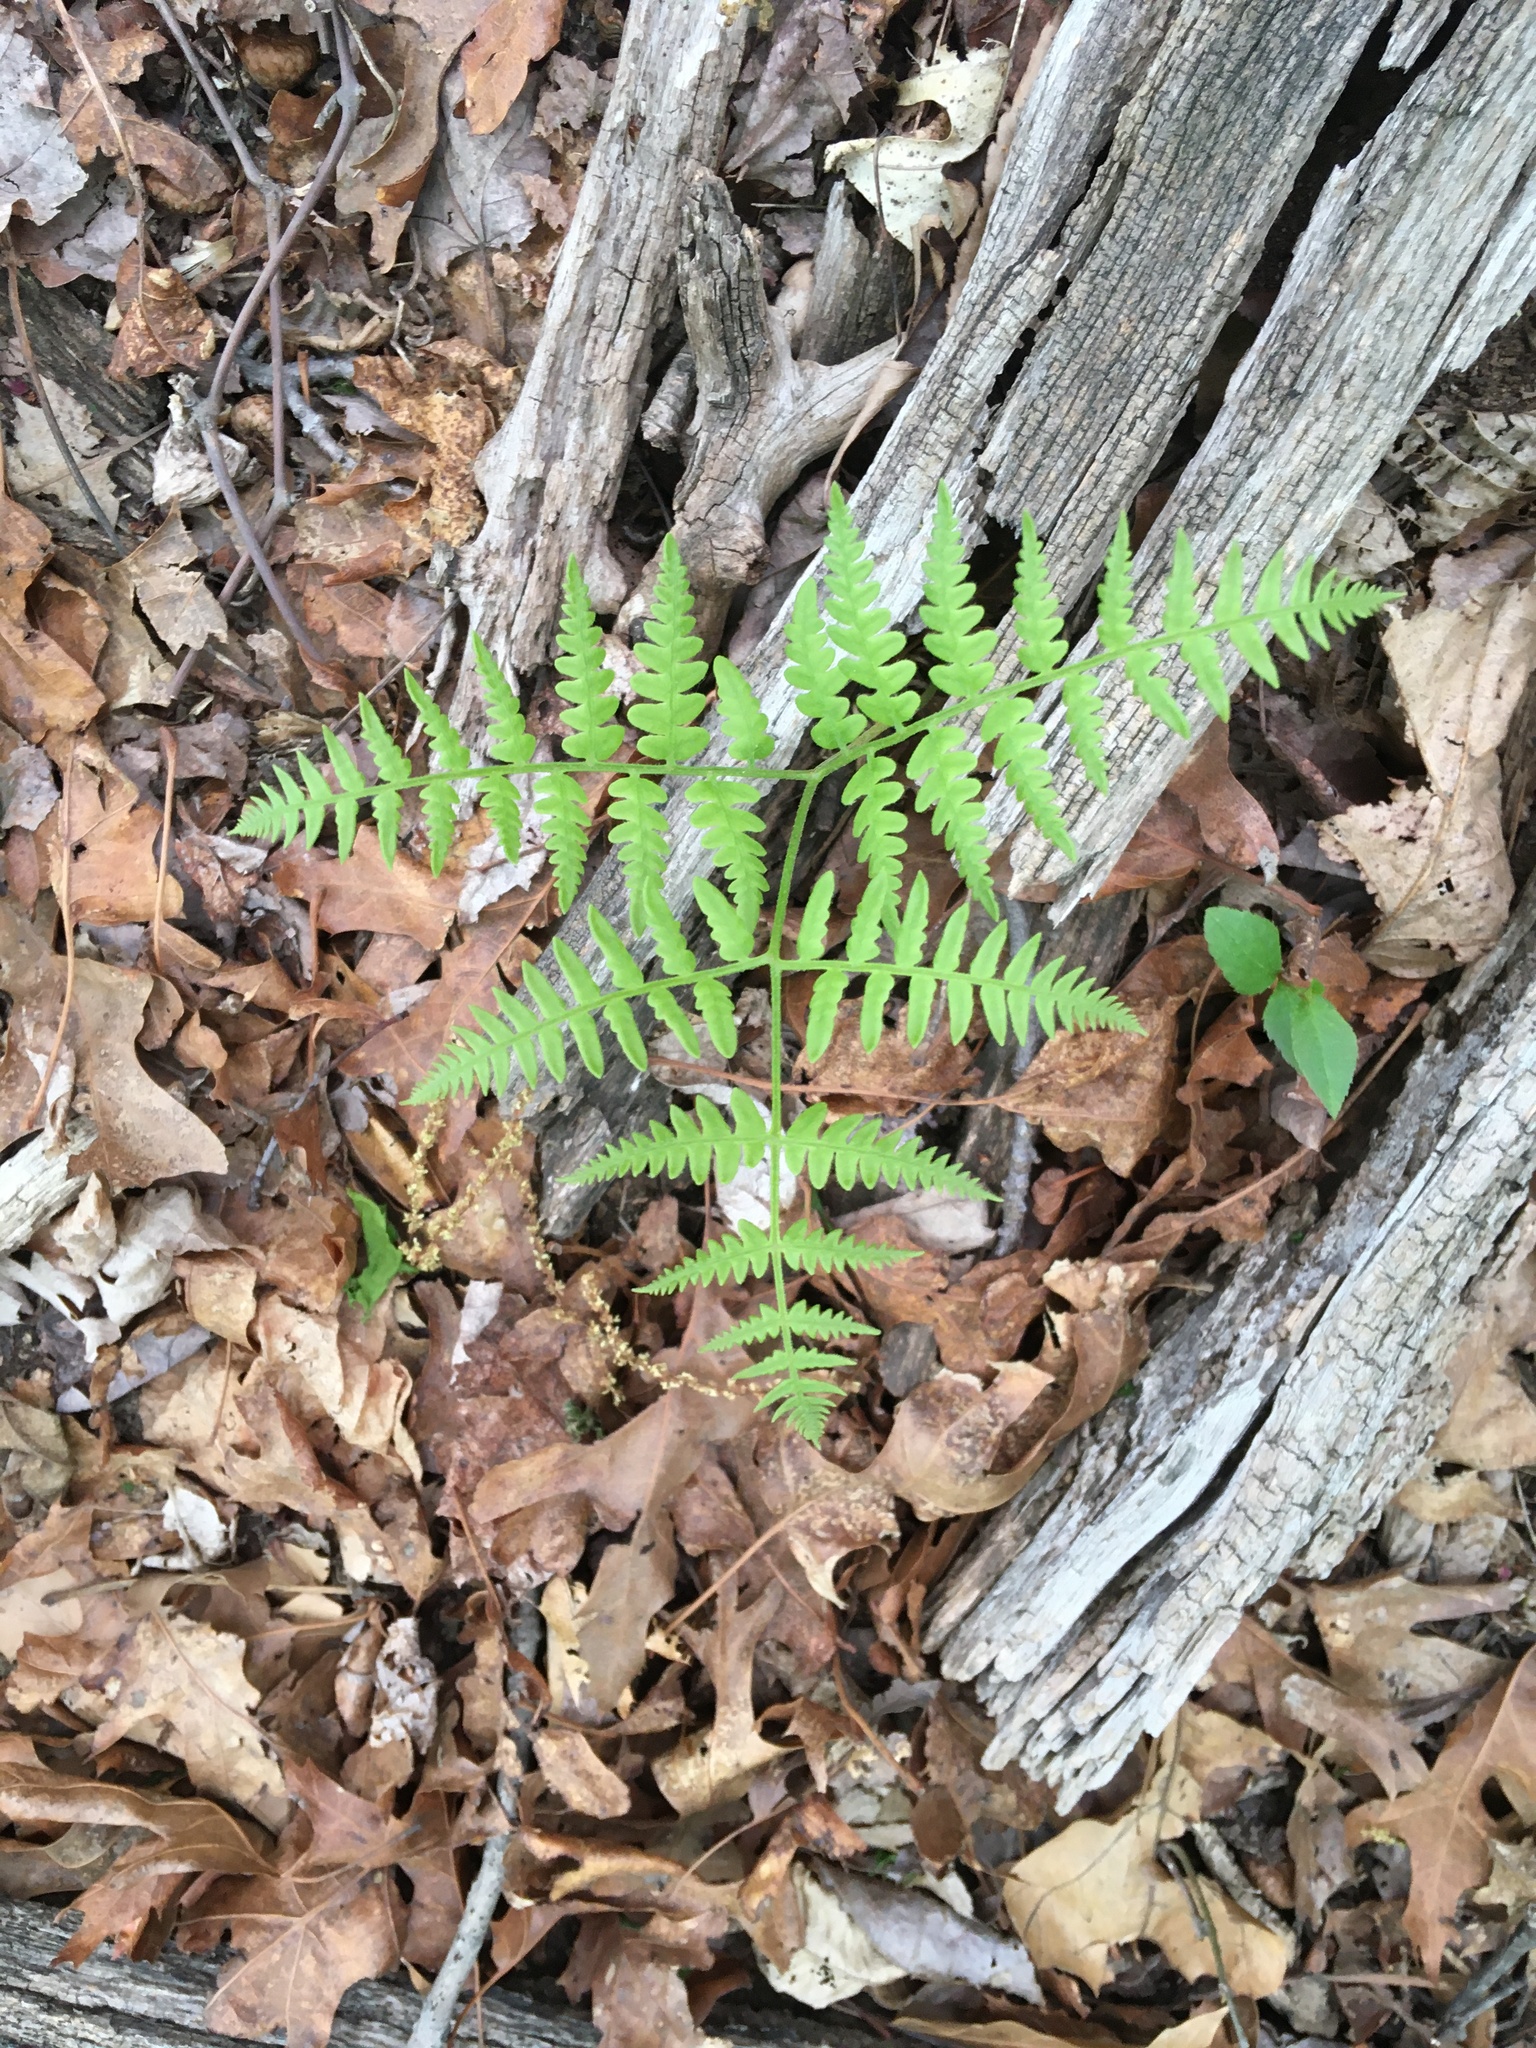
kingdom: Plantae
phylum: Tracheophyta
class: Polypodiopsida
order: Polypodiales
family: Dennstaedtiaceae
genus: Pteridium
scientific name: Pteridium aquilinum
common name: Bracken
